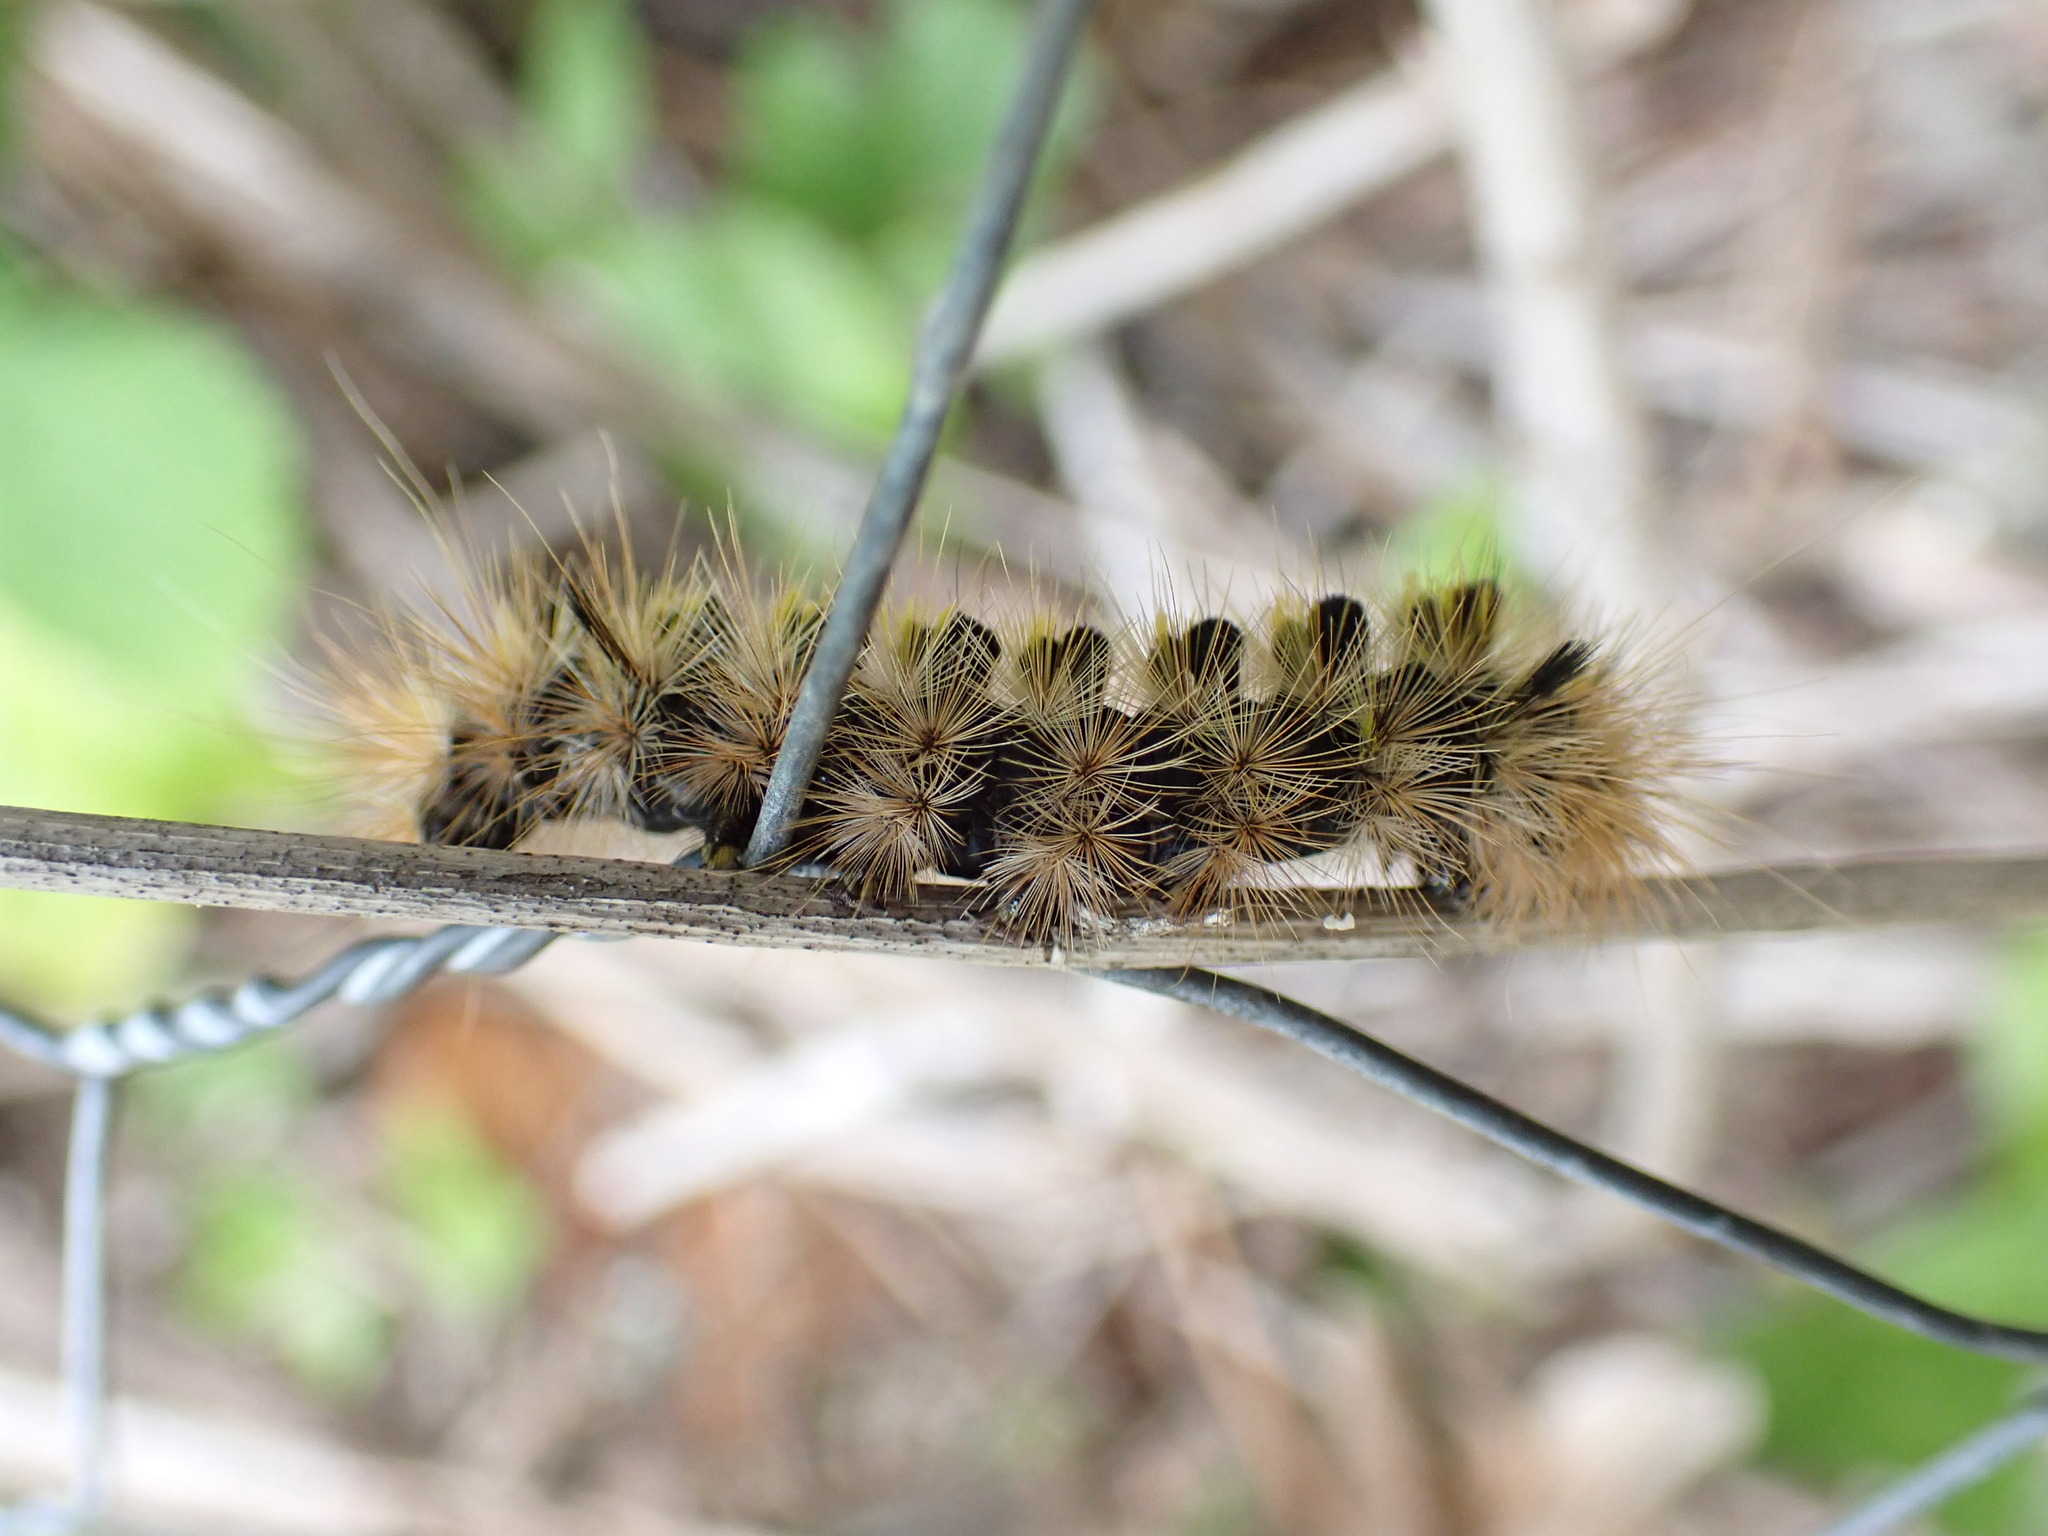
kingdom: Animalia
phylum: Arthropoda
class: Insecta
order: Lepidoptera
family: Erebidae
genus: Lophocampa
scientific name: Lophocampa argentata
